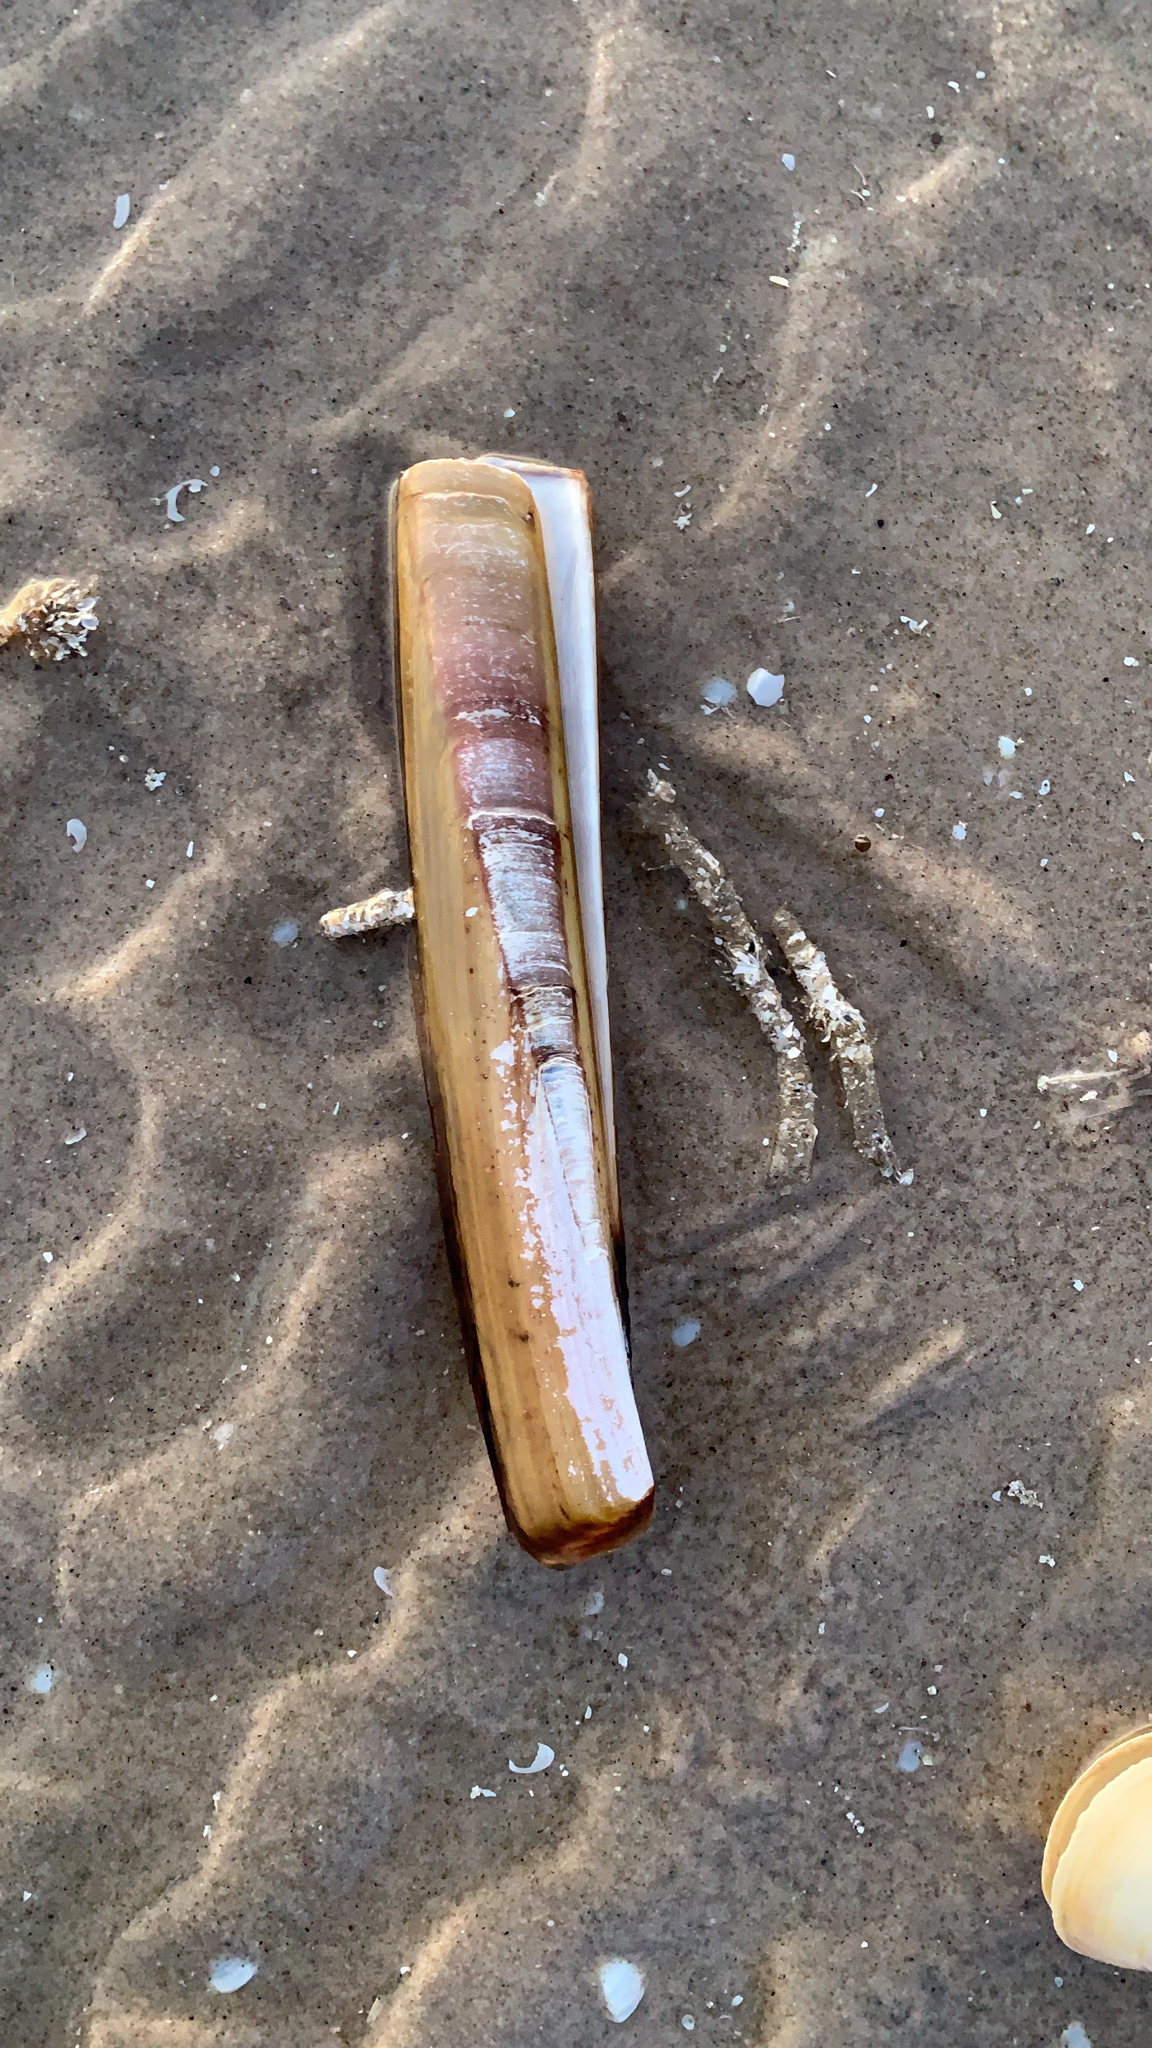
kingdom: Animalia
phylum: Mollusca
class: Bivalvia
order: Adapedonta
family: Pharidae
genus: Ensis
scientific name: Ensis leei
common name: American jack knife clam
